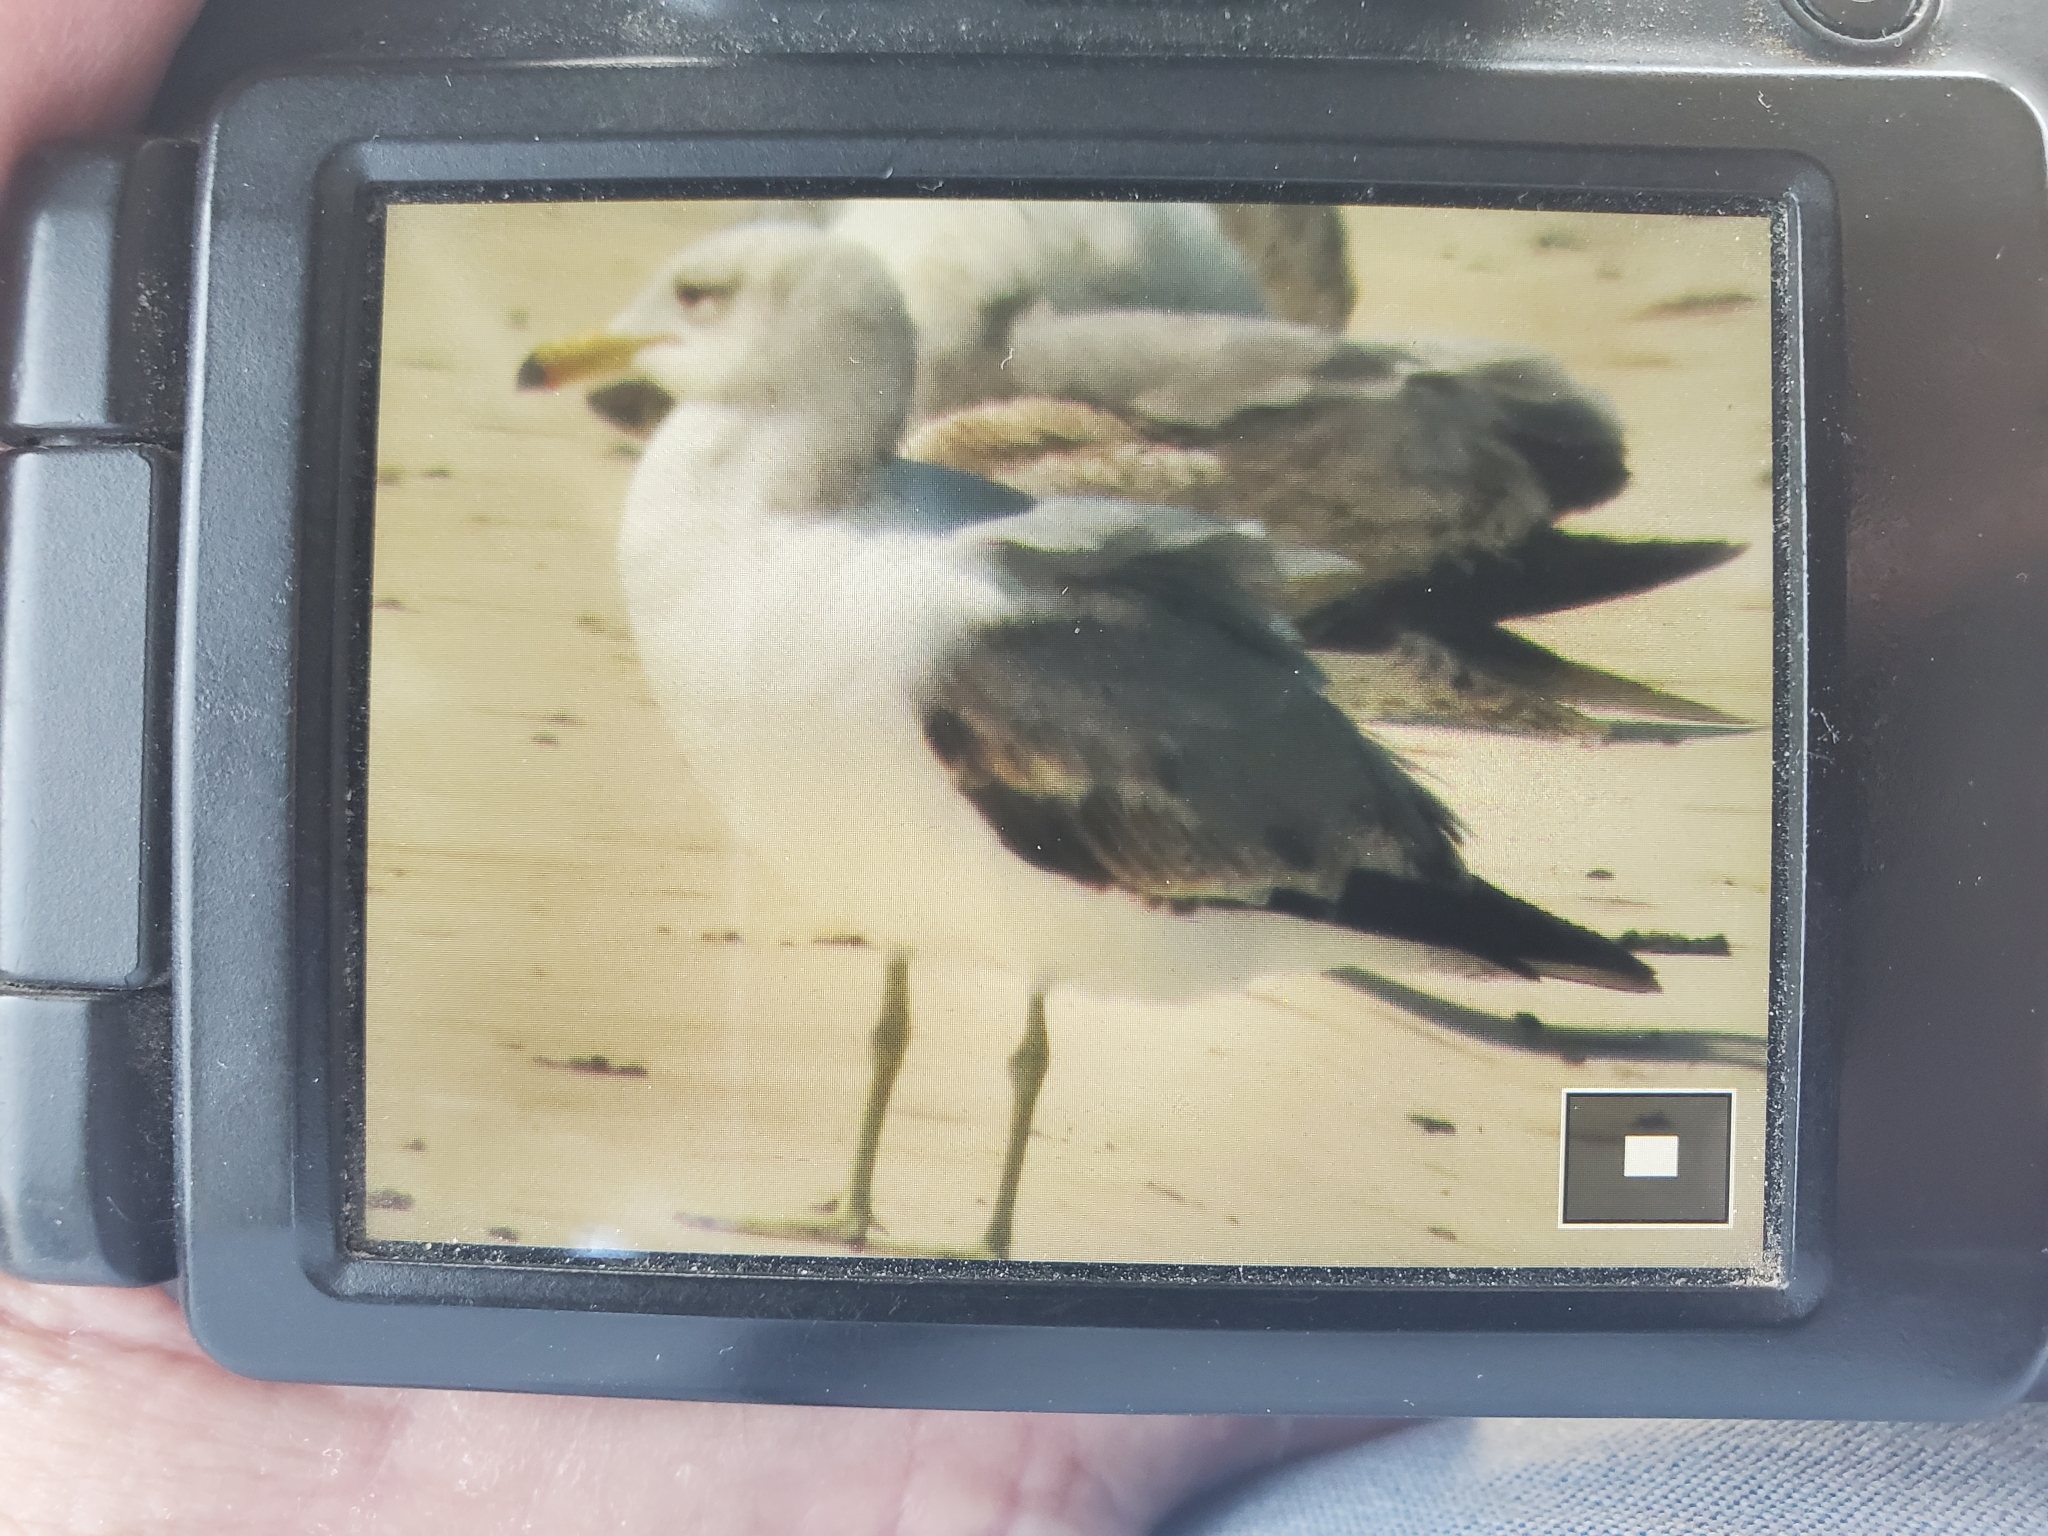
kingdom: Animalia
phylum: Chordata
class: Aves
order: Charadriiformes
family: Laridae
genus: Larus
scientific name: Larus californicus
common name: California gull
